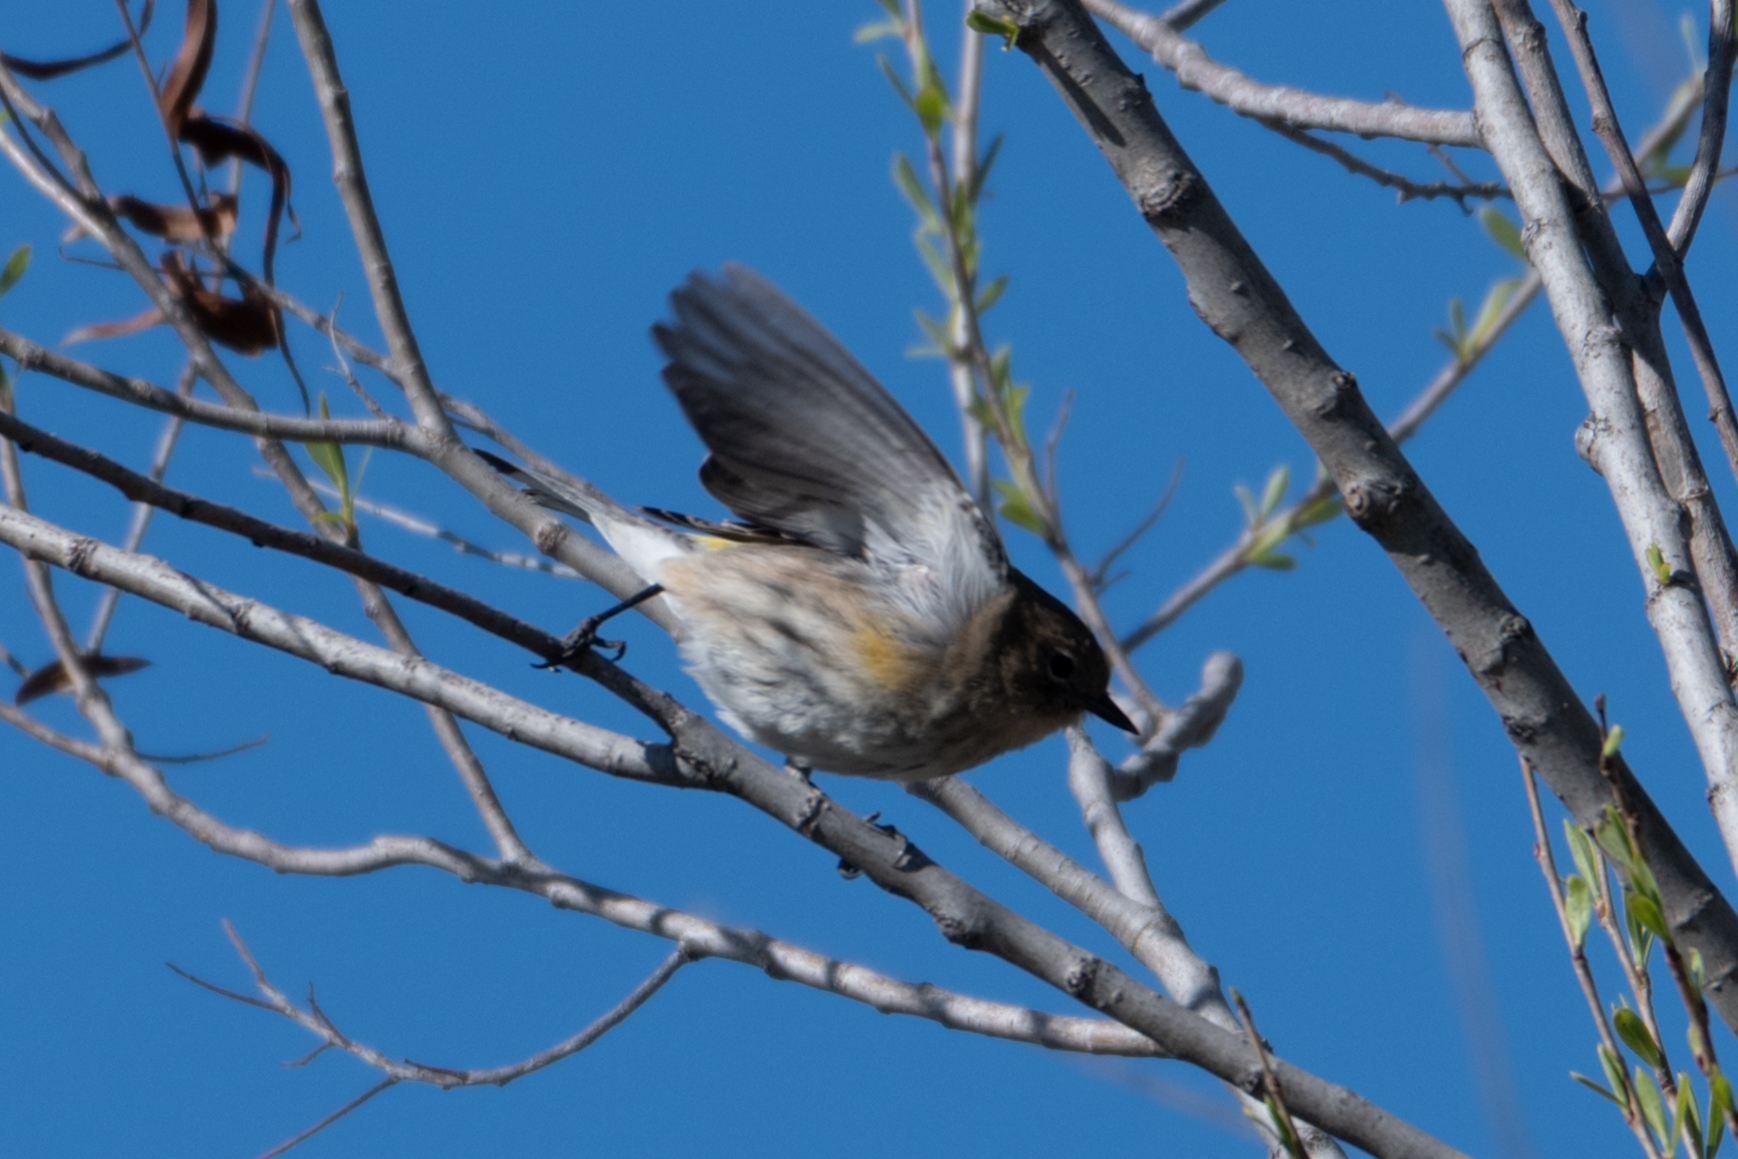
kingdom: Animalia
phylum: Chordata
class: Aves
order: Passeriformes
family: Parulidae
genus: Setophaga
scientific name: Setophaga coronata
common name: Myrtle warbler
